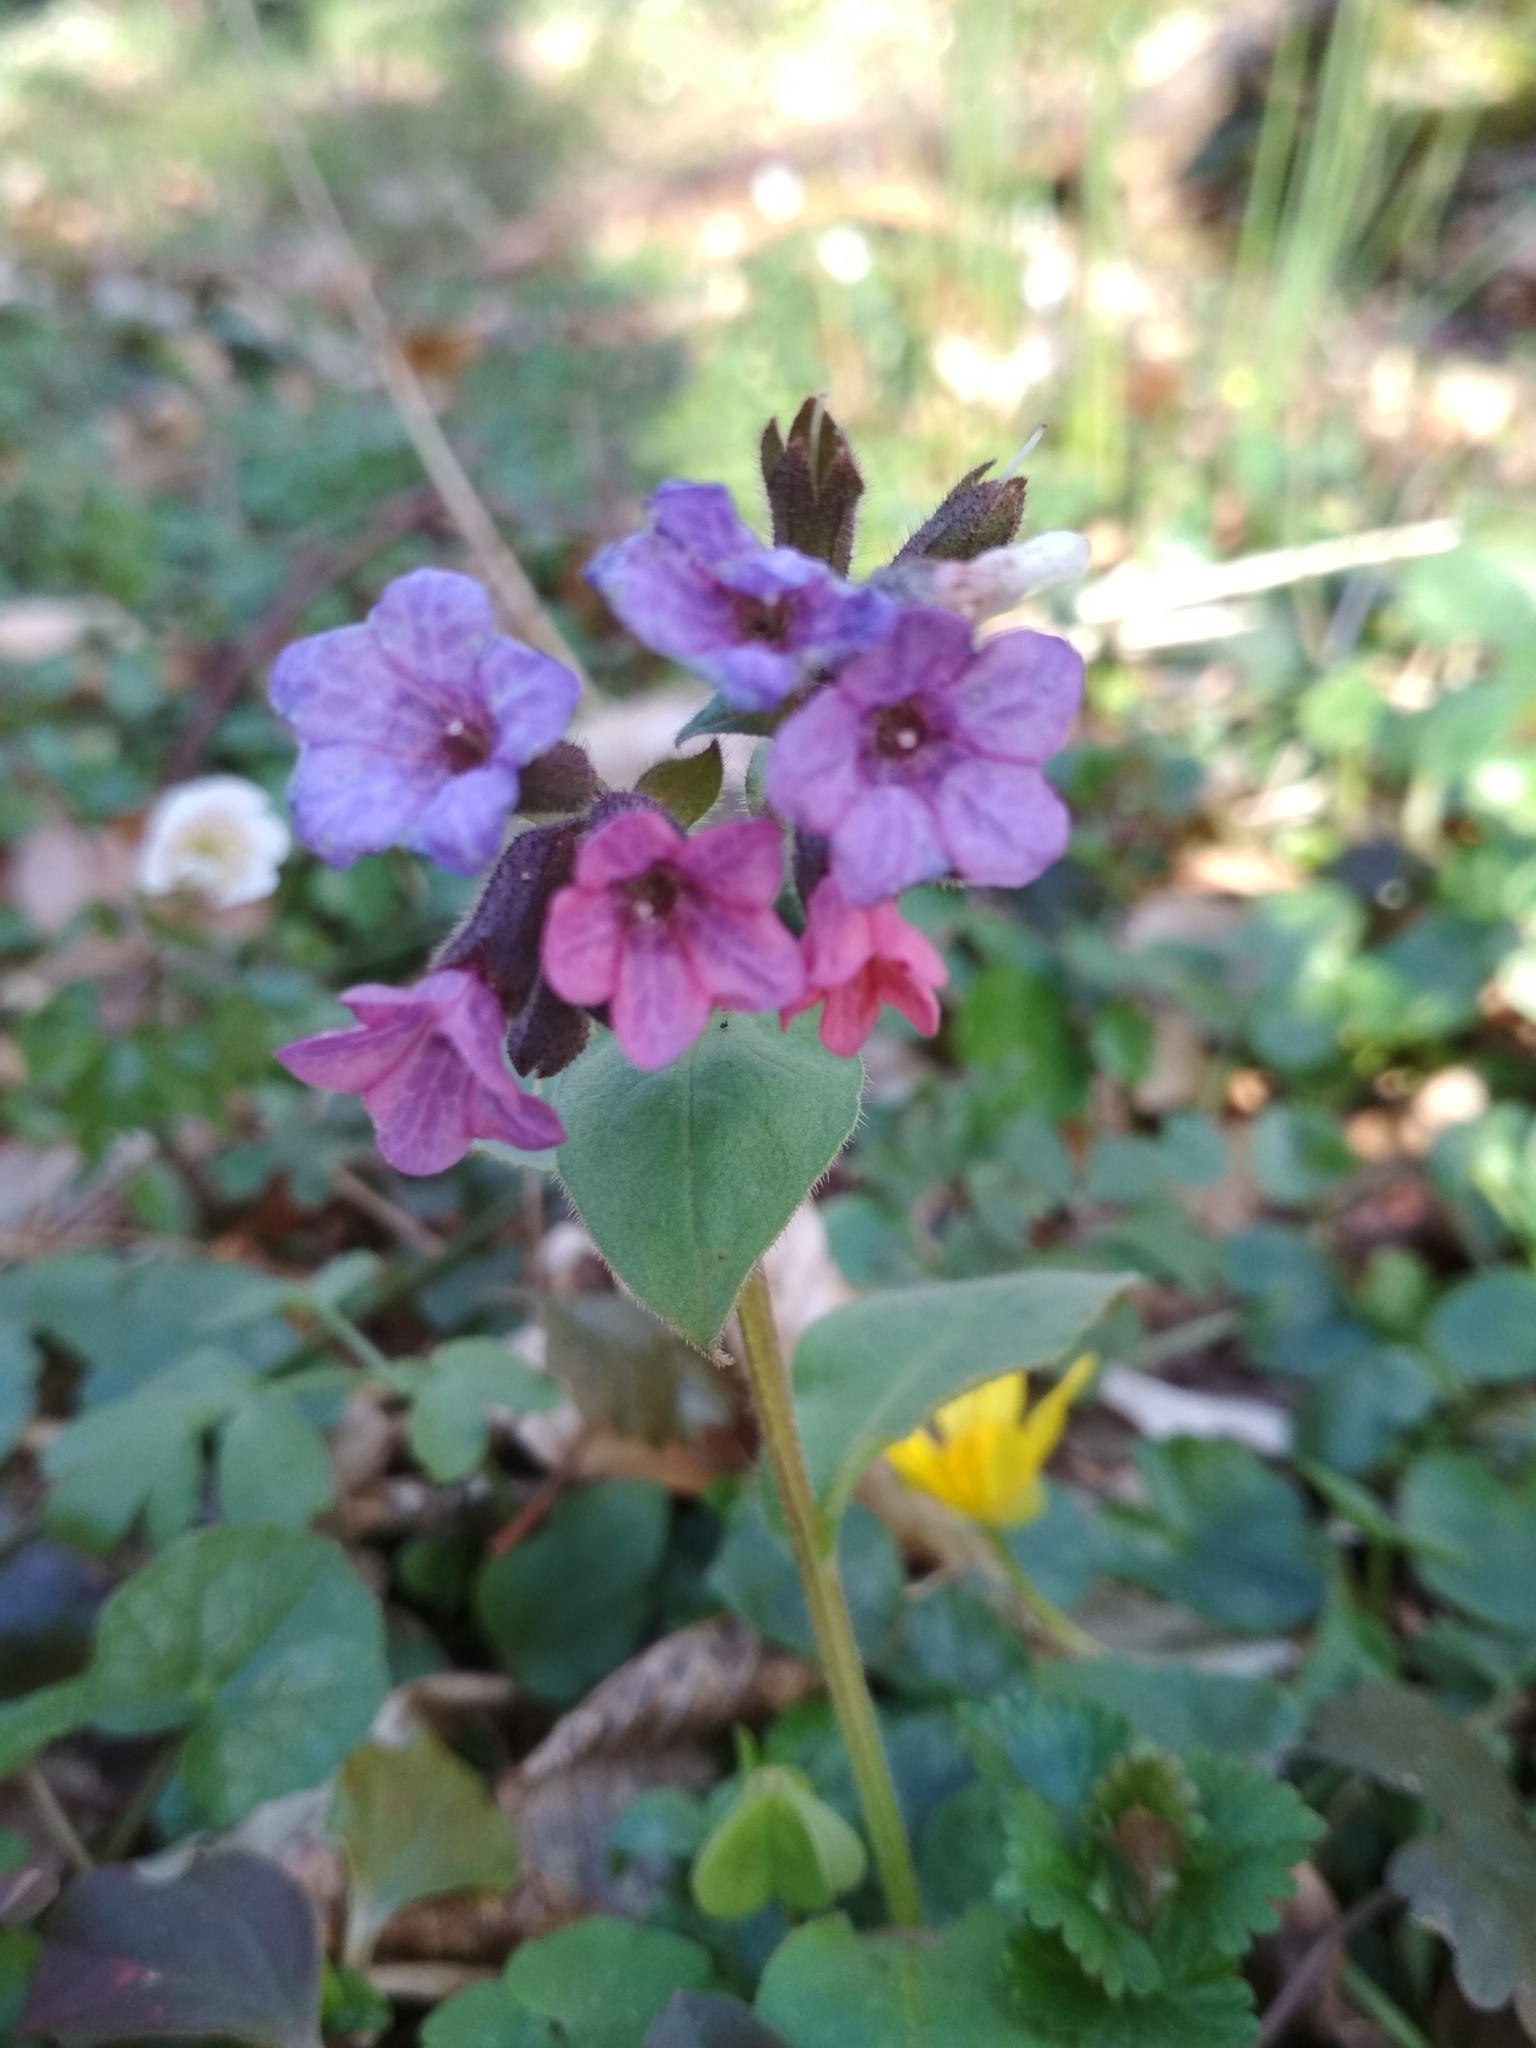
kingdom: Plantae
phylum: Tracheophyta
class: Magnoliopsida
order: Boraginales
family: Boraginaceae
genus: Pulmonaria
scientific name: Pulmonaria obscura
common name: Suffolk lungwort
